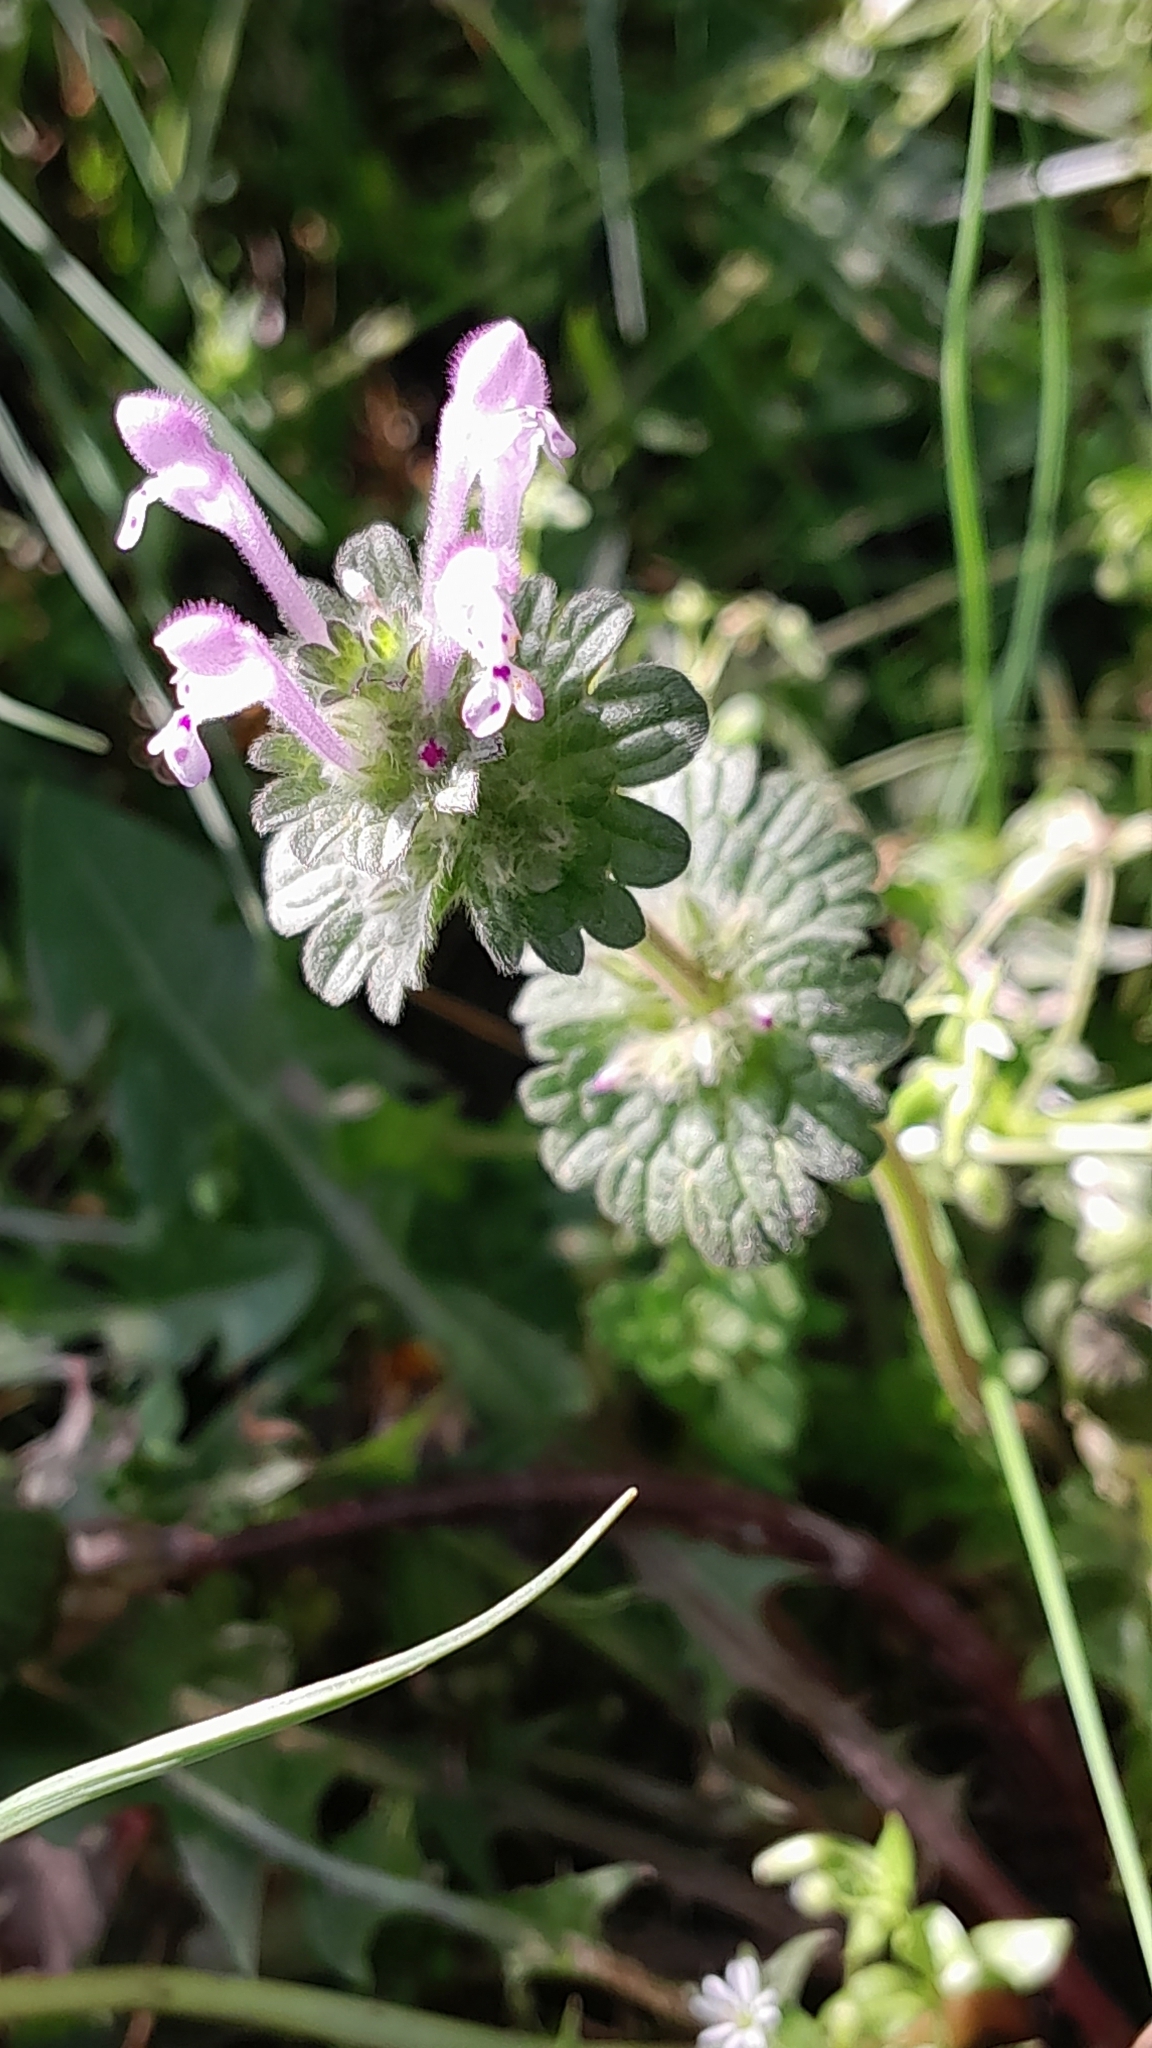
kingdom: Plantae
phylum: Tracheophyta
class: Magnoliopsida
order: Lamiales
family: Lamiaceae
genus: Lamium
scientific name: Lamium amplexicaule
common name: Henbit dead-nettle
